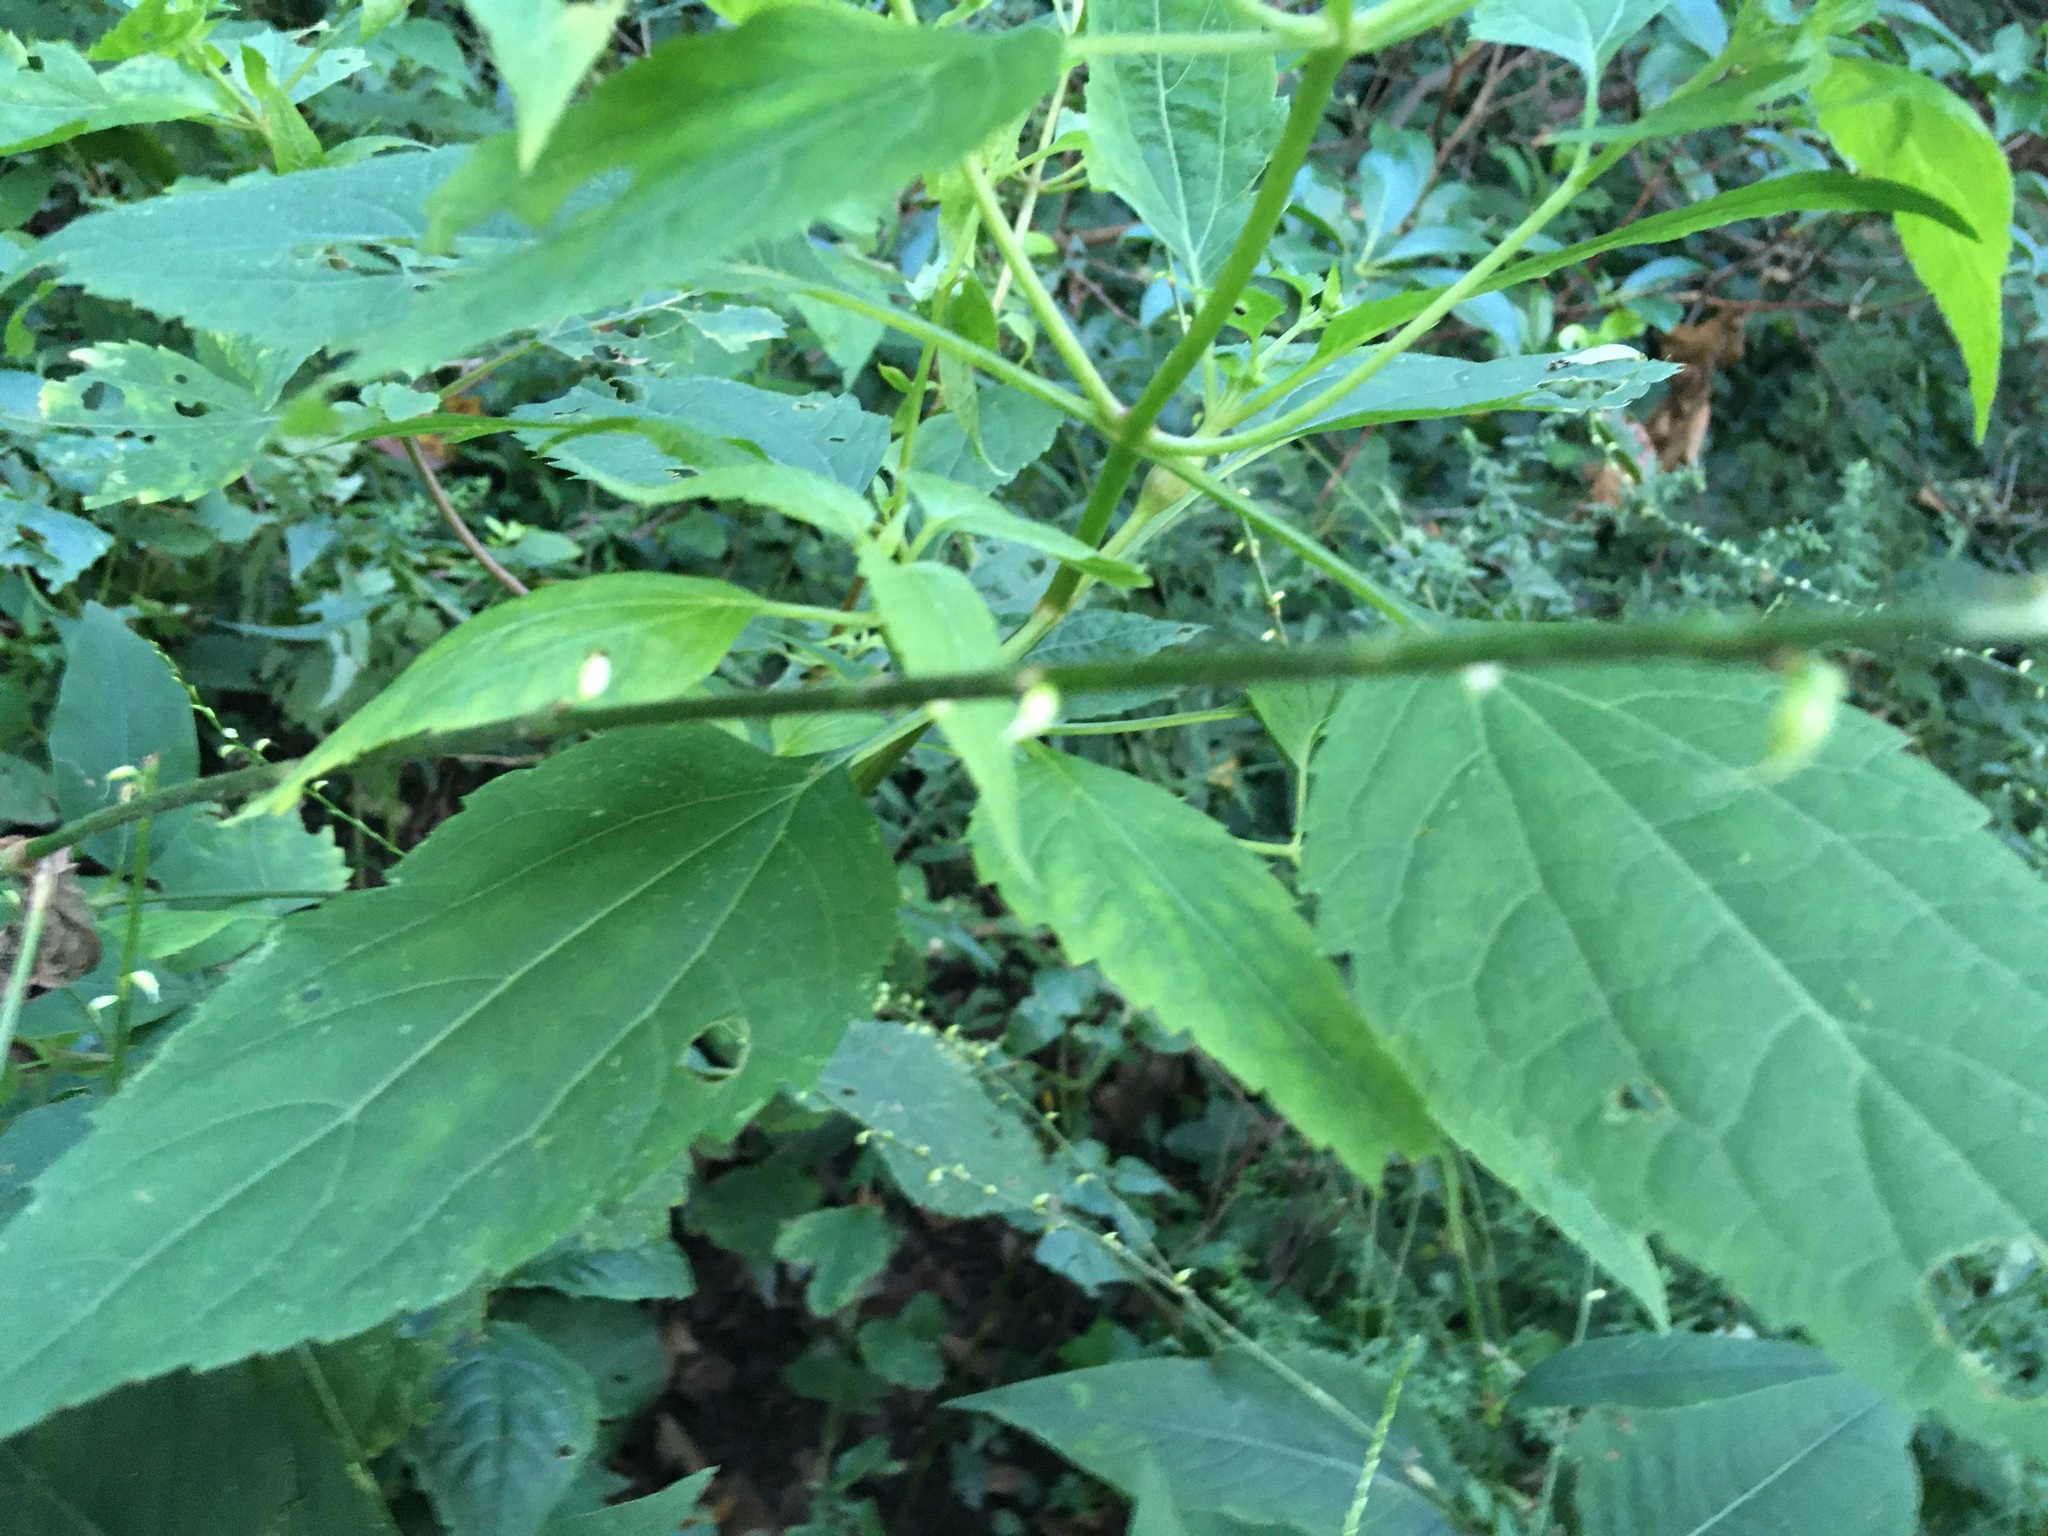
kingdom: Plantae
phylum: Tracheophyta
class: Magnoliopsida
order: Caryophyllales
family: Polygonaceae
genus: Persicaria
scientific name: Persicaria virginiana
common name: Jumpseed
